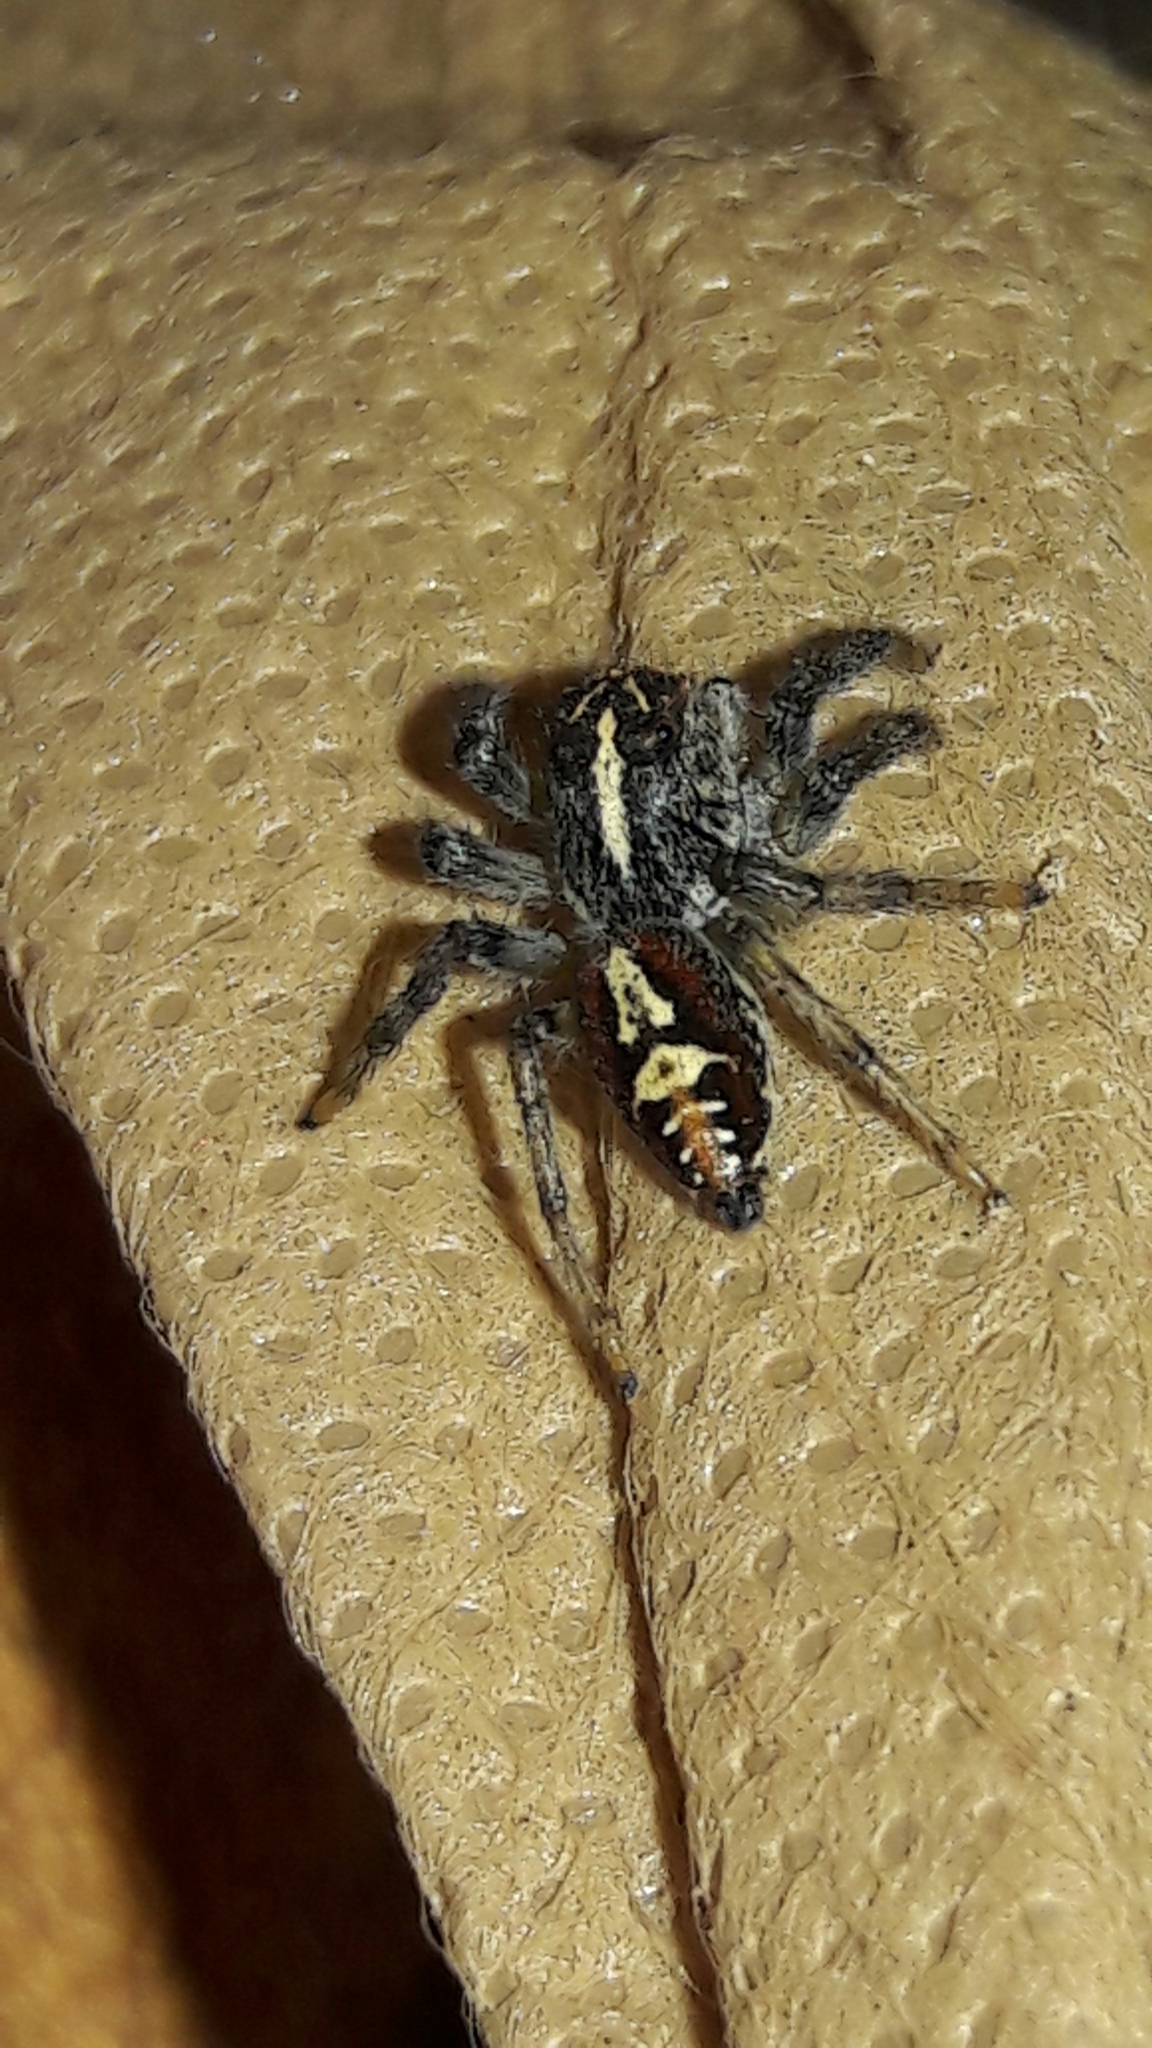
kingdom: Animalia
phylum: Arthropoda
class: Arachnida
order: Araneae
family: Salticidae
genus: Frigga
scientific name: Frigga quintensis
